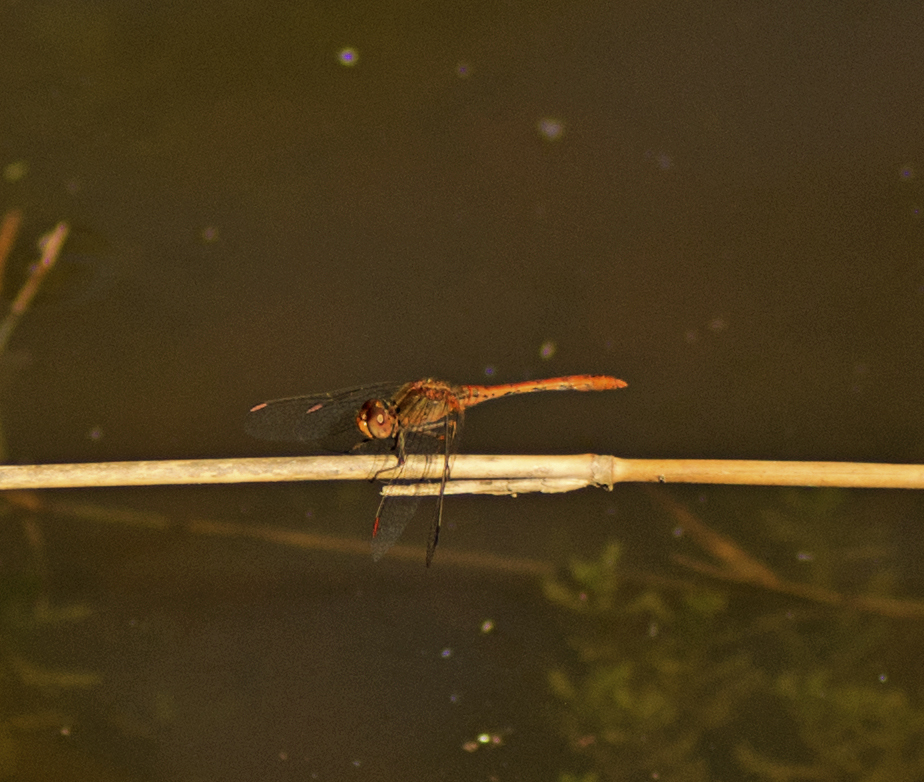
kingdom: Animalia
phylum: Arthropoda
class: Insecta
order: Odonata
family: Libellulidae
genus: Diplacodes
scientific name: Diplacodes bipunctata
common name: Red percher dragonfly
